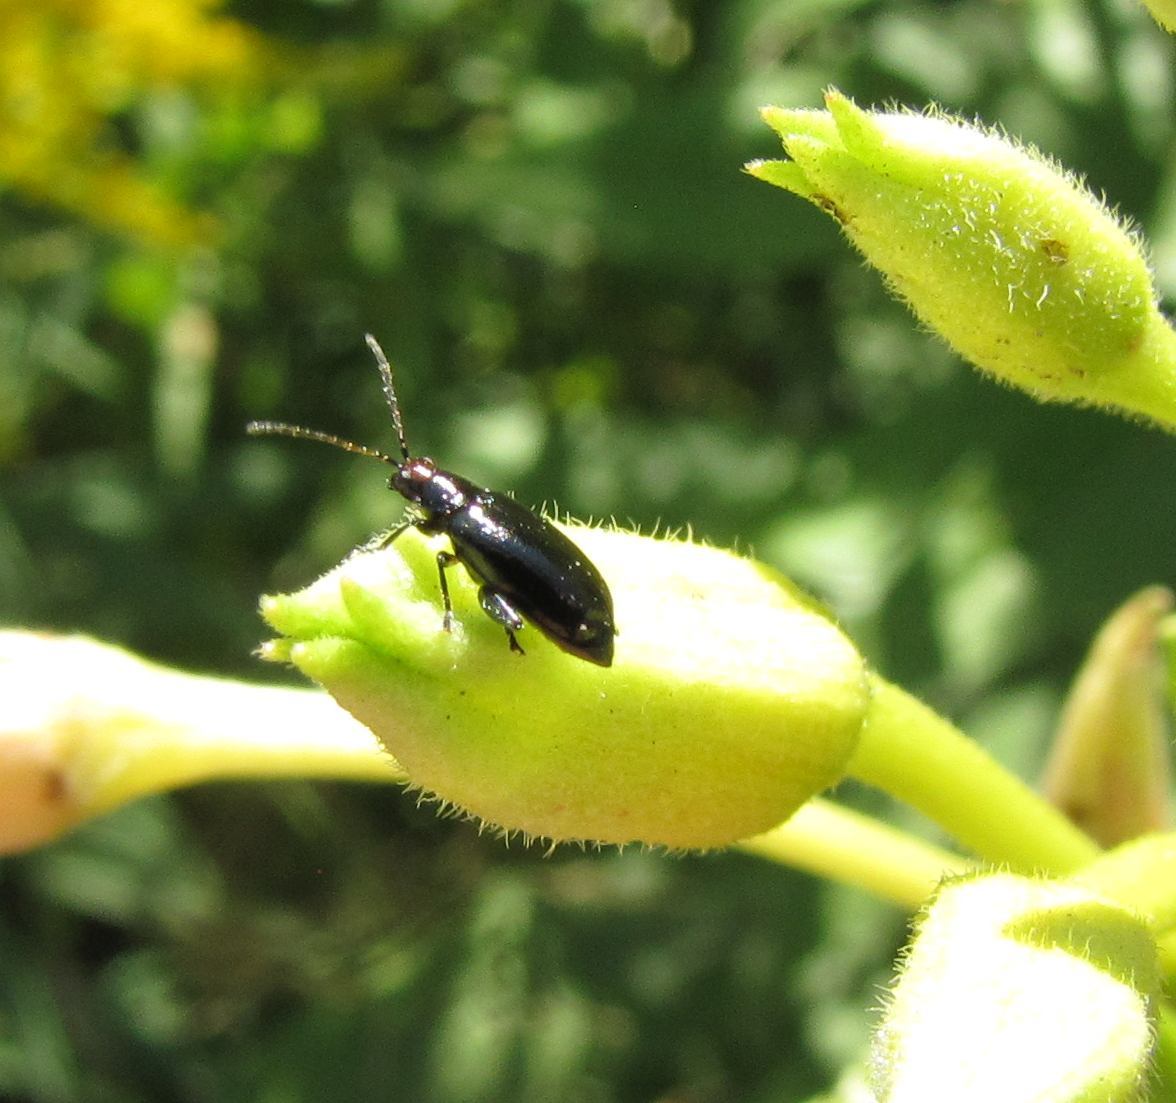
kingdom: Animalia
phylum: Arthropoda
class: Insecta
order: Coleoptera
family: Chrysomelidae
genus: Systena
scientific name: Systena frontalis
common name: Red-headed flea beetle
